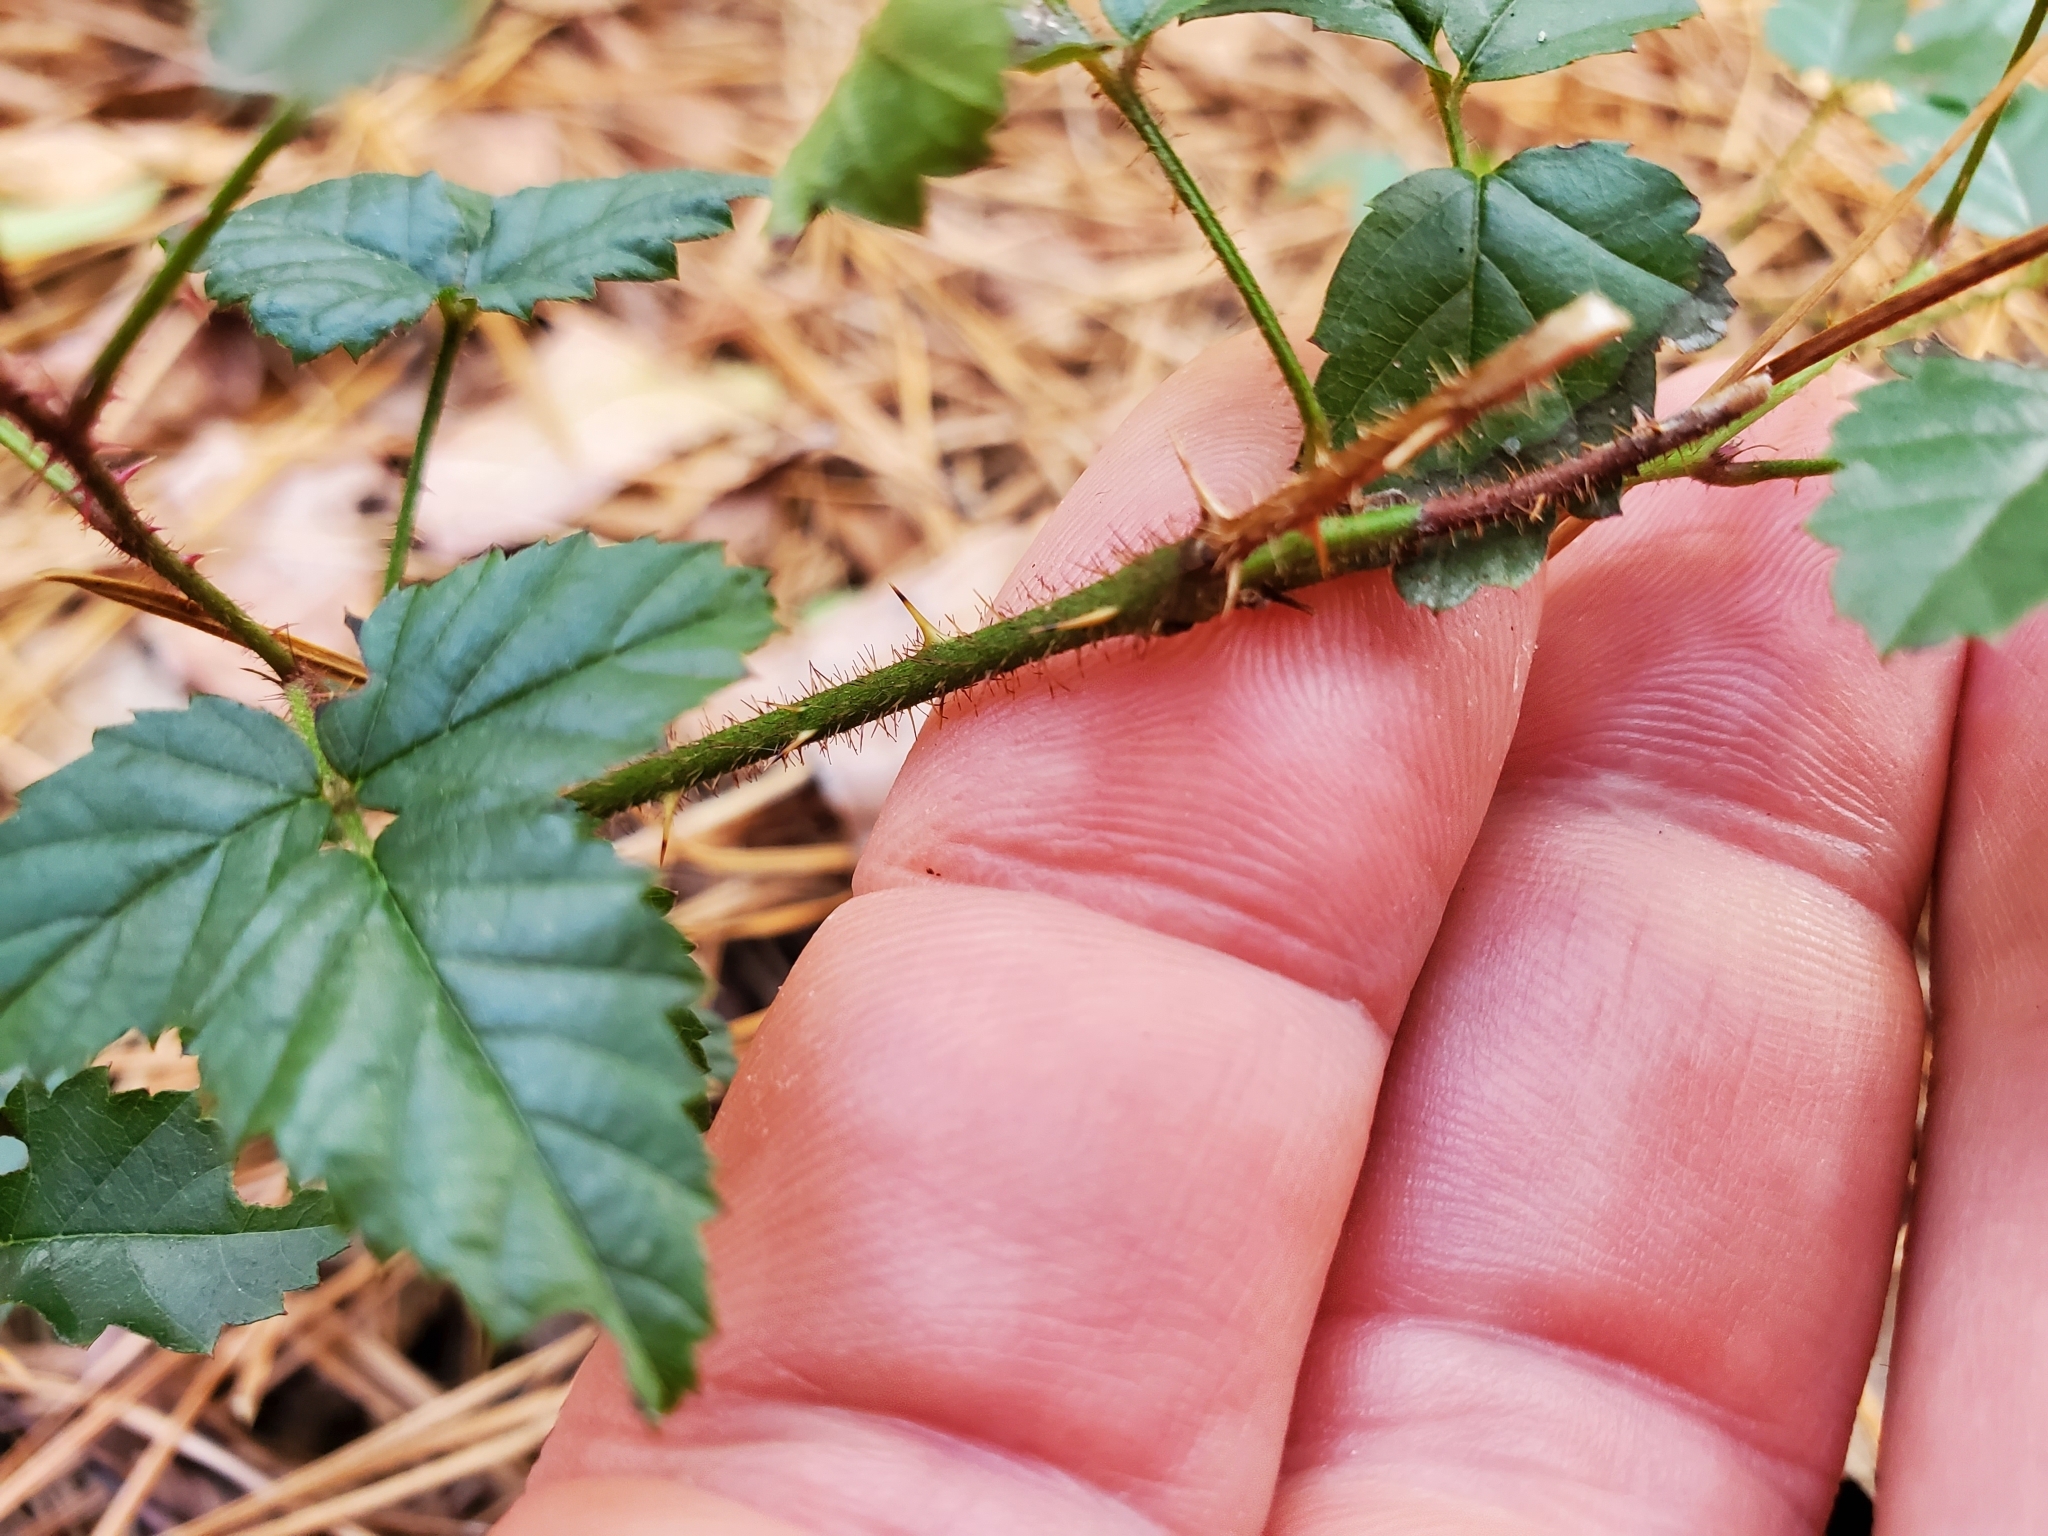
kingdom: Plantae
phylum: Tracheophyta
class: Magnoliopsida
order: Rosales
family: Rosaceae
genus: Rubus
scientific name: Rubus trivialis
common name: Southern dewberry
